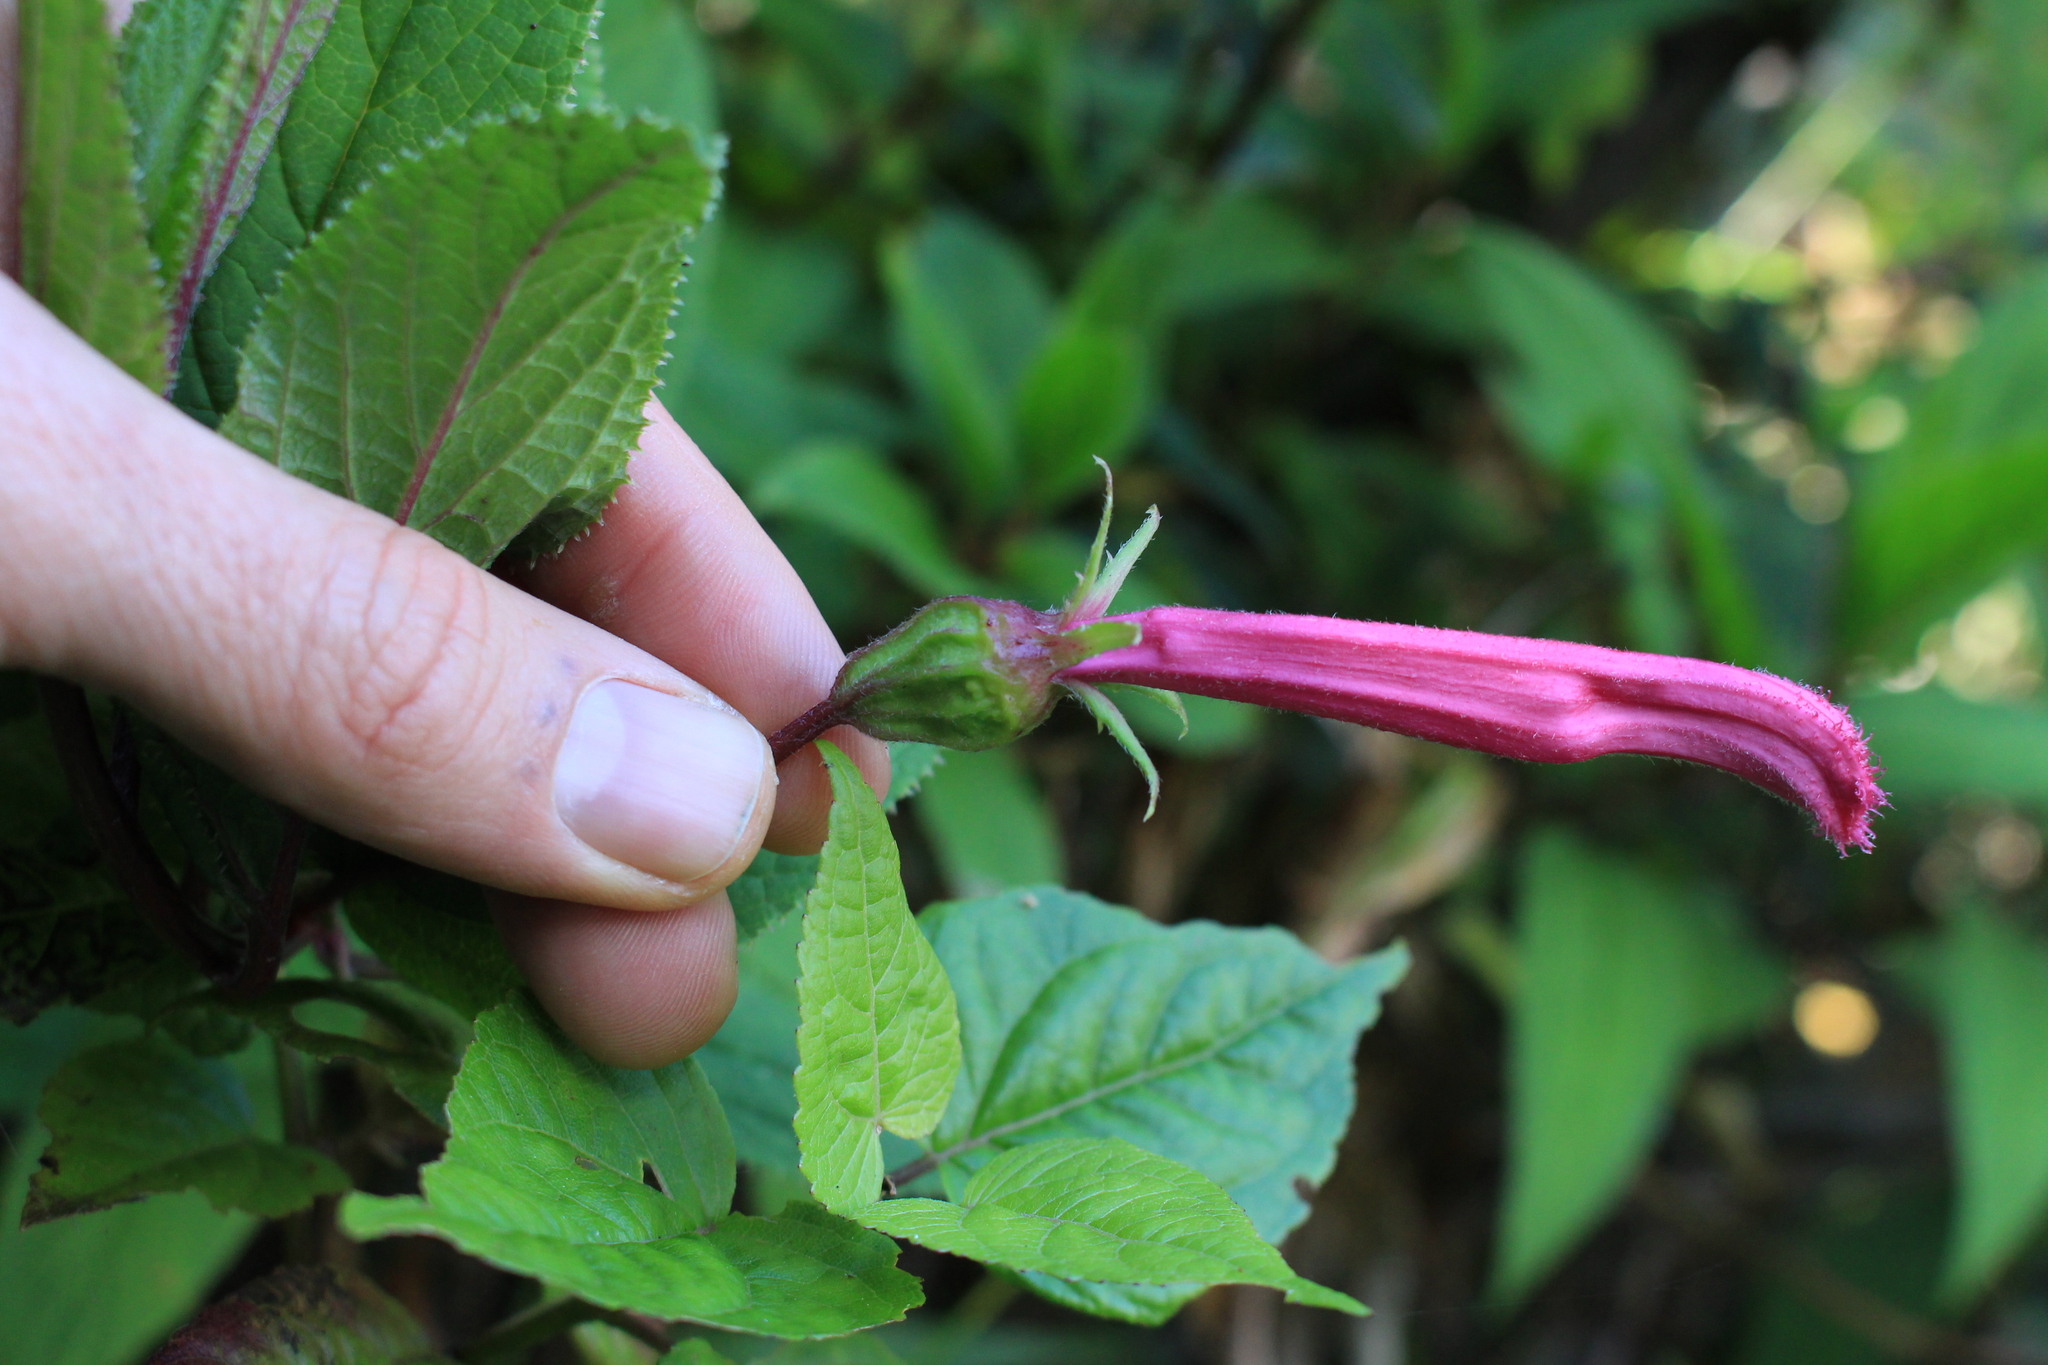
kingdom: Plantae
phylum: Tracheophyta
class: Magnoliopsida
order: Asterales
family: Campanulaceae
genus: Centropogon
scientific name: Centropogon gutierrezii
